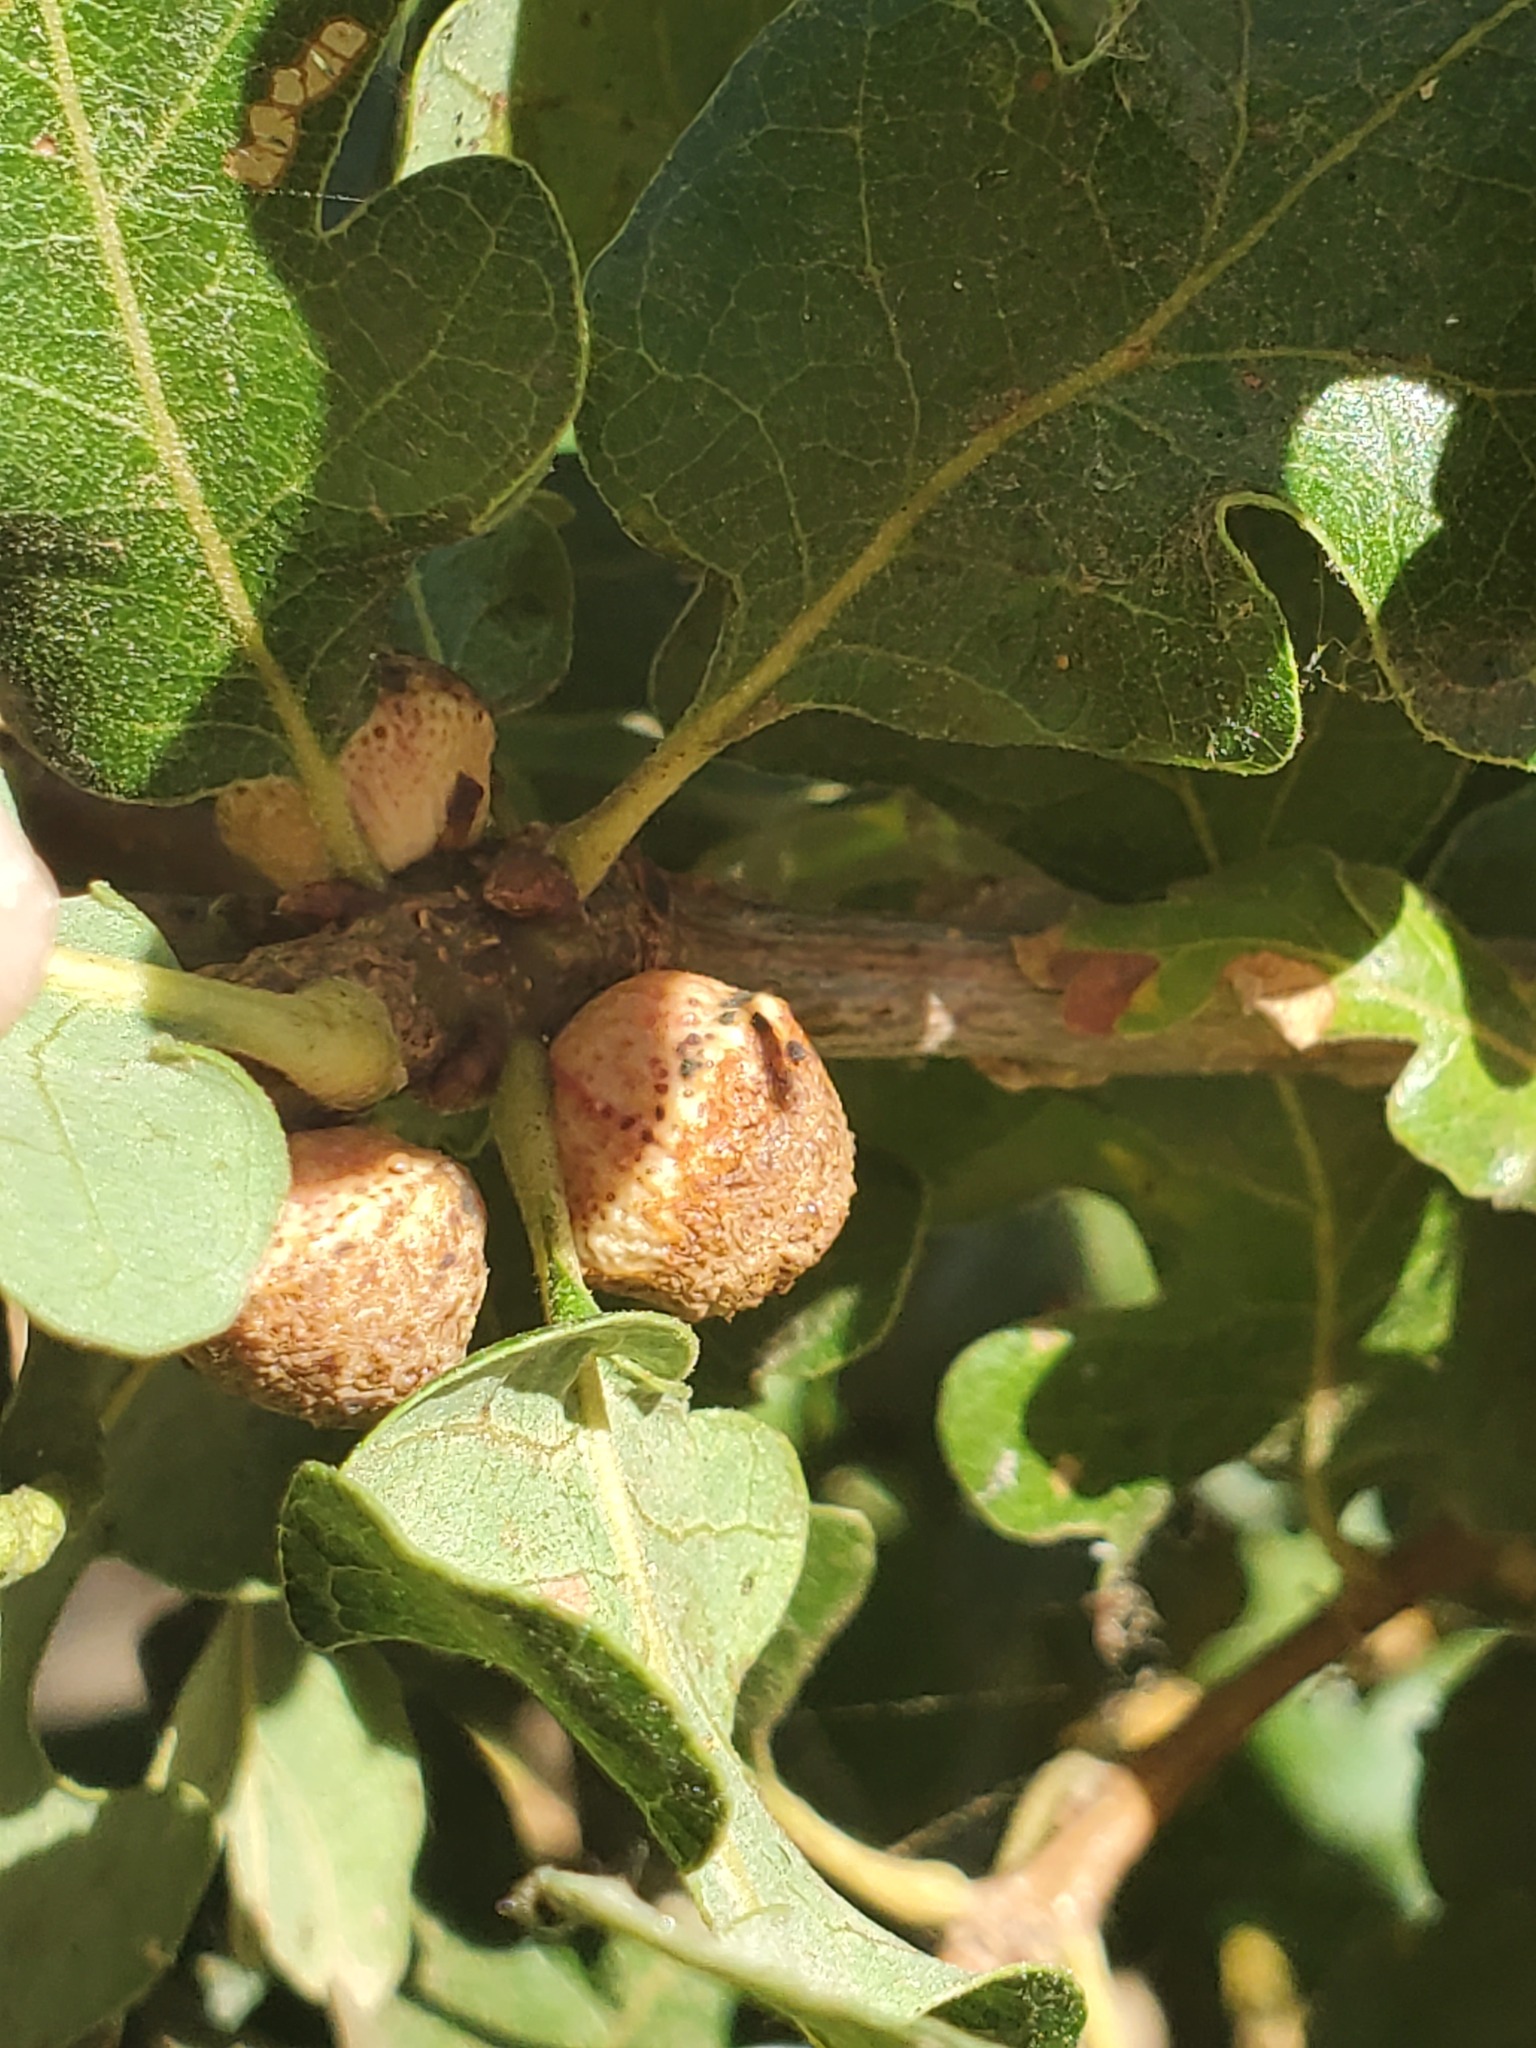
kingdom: Animalia
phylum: Arthropoda
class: Insecta
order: Hymenoptera
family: Cynipidae
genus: Disholcaspis
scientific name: Disholcaspis
